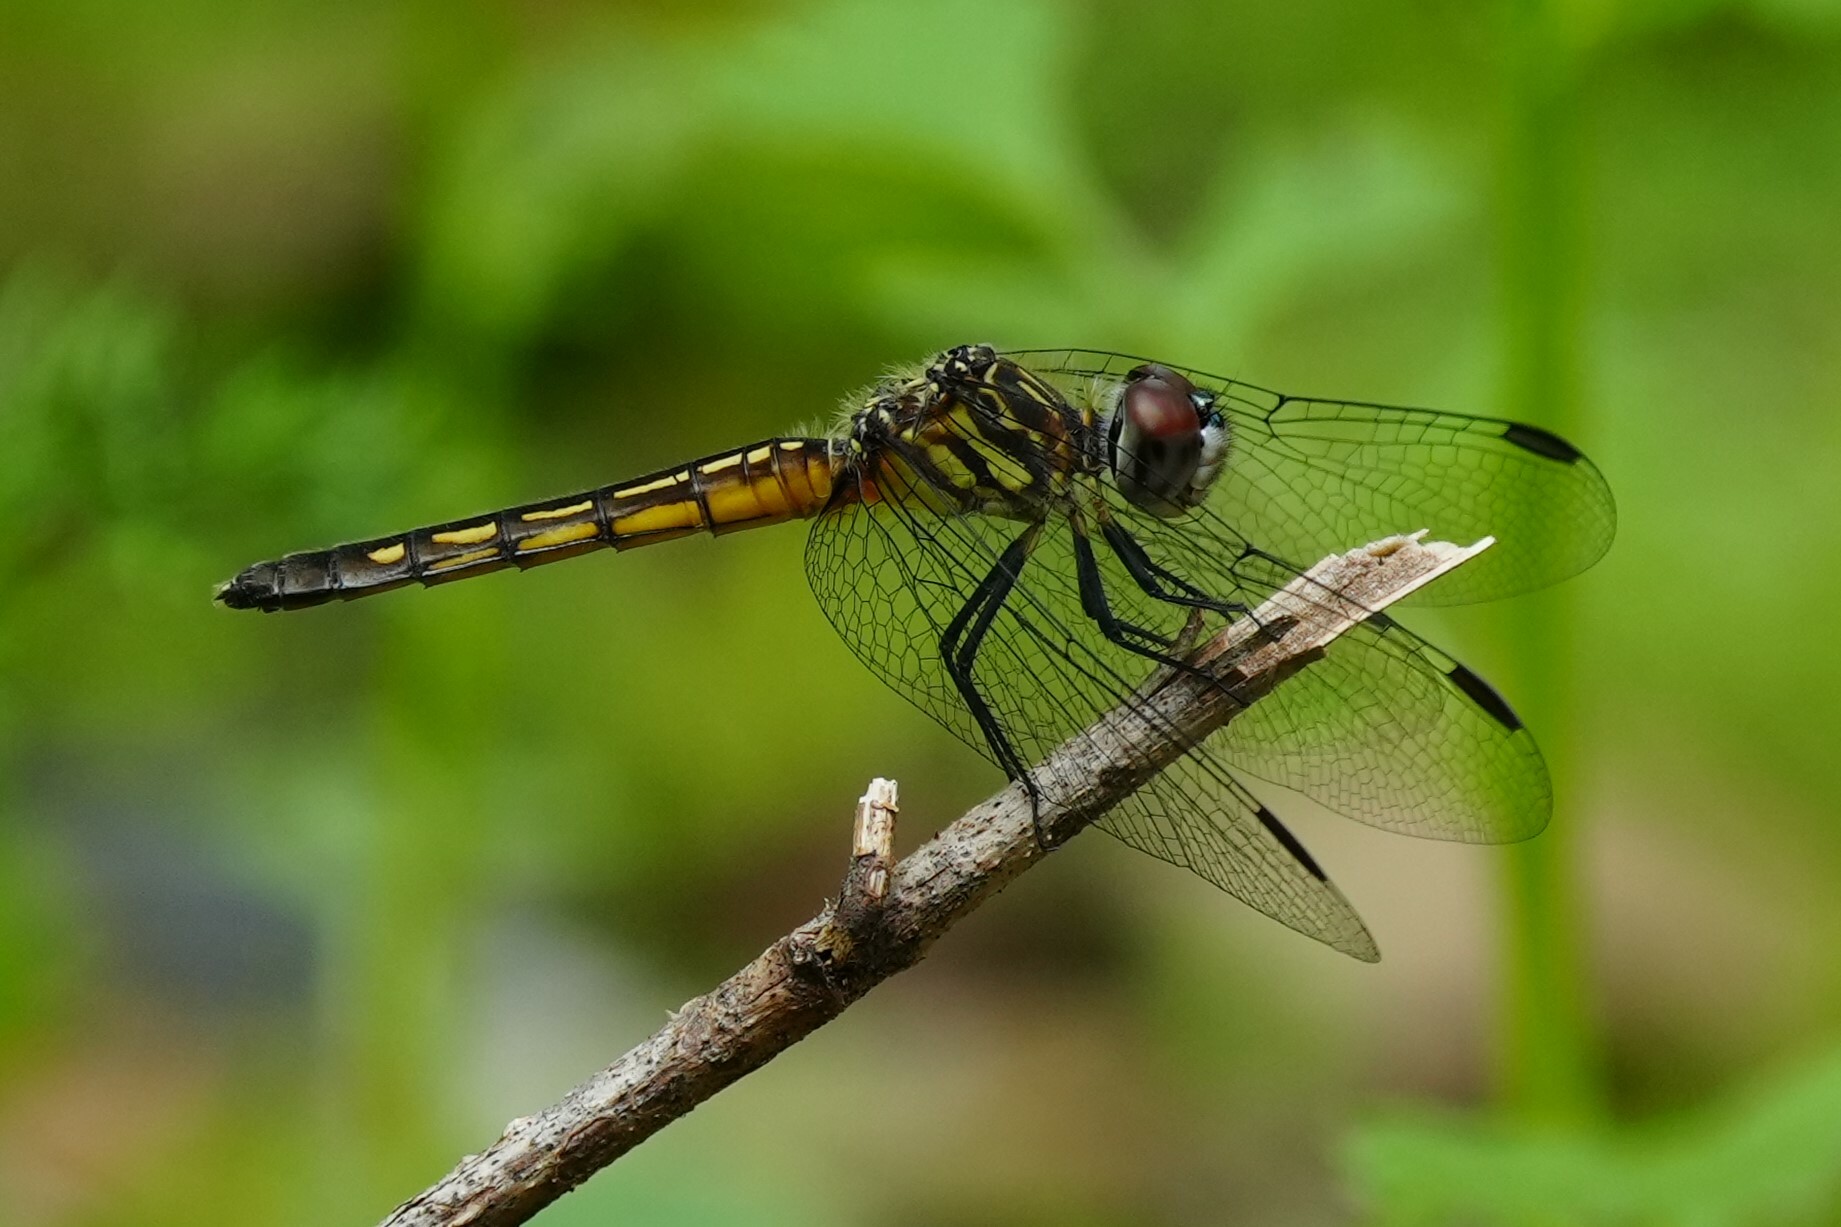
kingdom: Animalia
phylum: Arthropoda
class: Insecta
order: Odonata
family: Libellulidae
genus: Pachydiplax
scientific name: Pachydiplax longipennis
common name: Blue dasher
